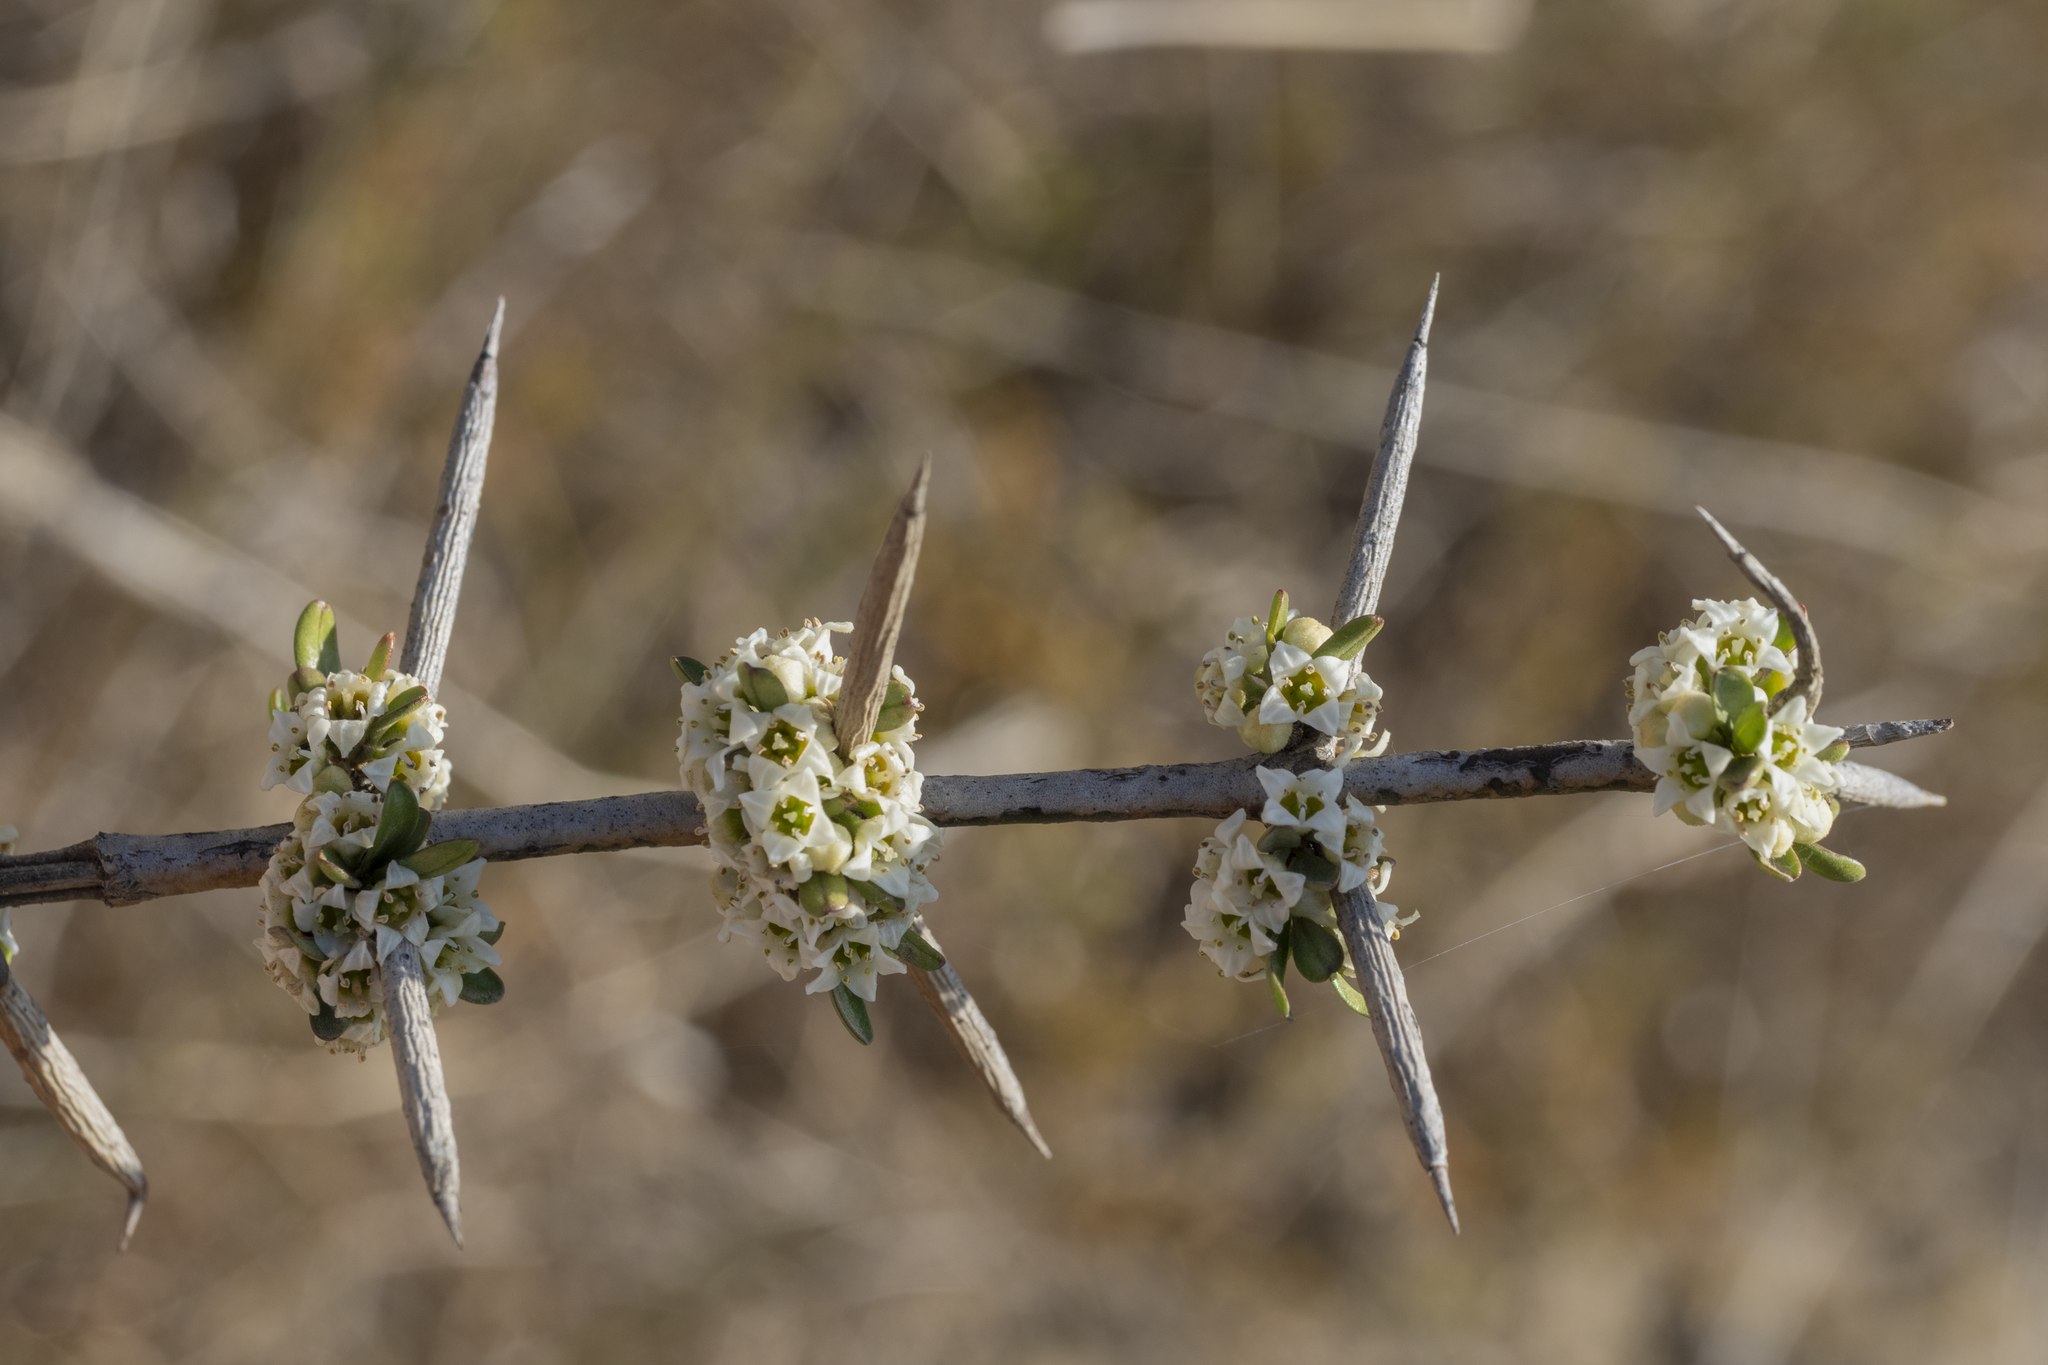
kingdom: Plantae
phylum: Tracheophyta
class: Magnoliopsida
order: Rosales
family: Rhamnaceae
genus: Discaria
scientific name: Discaria toumatou
